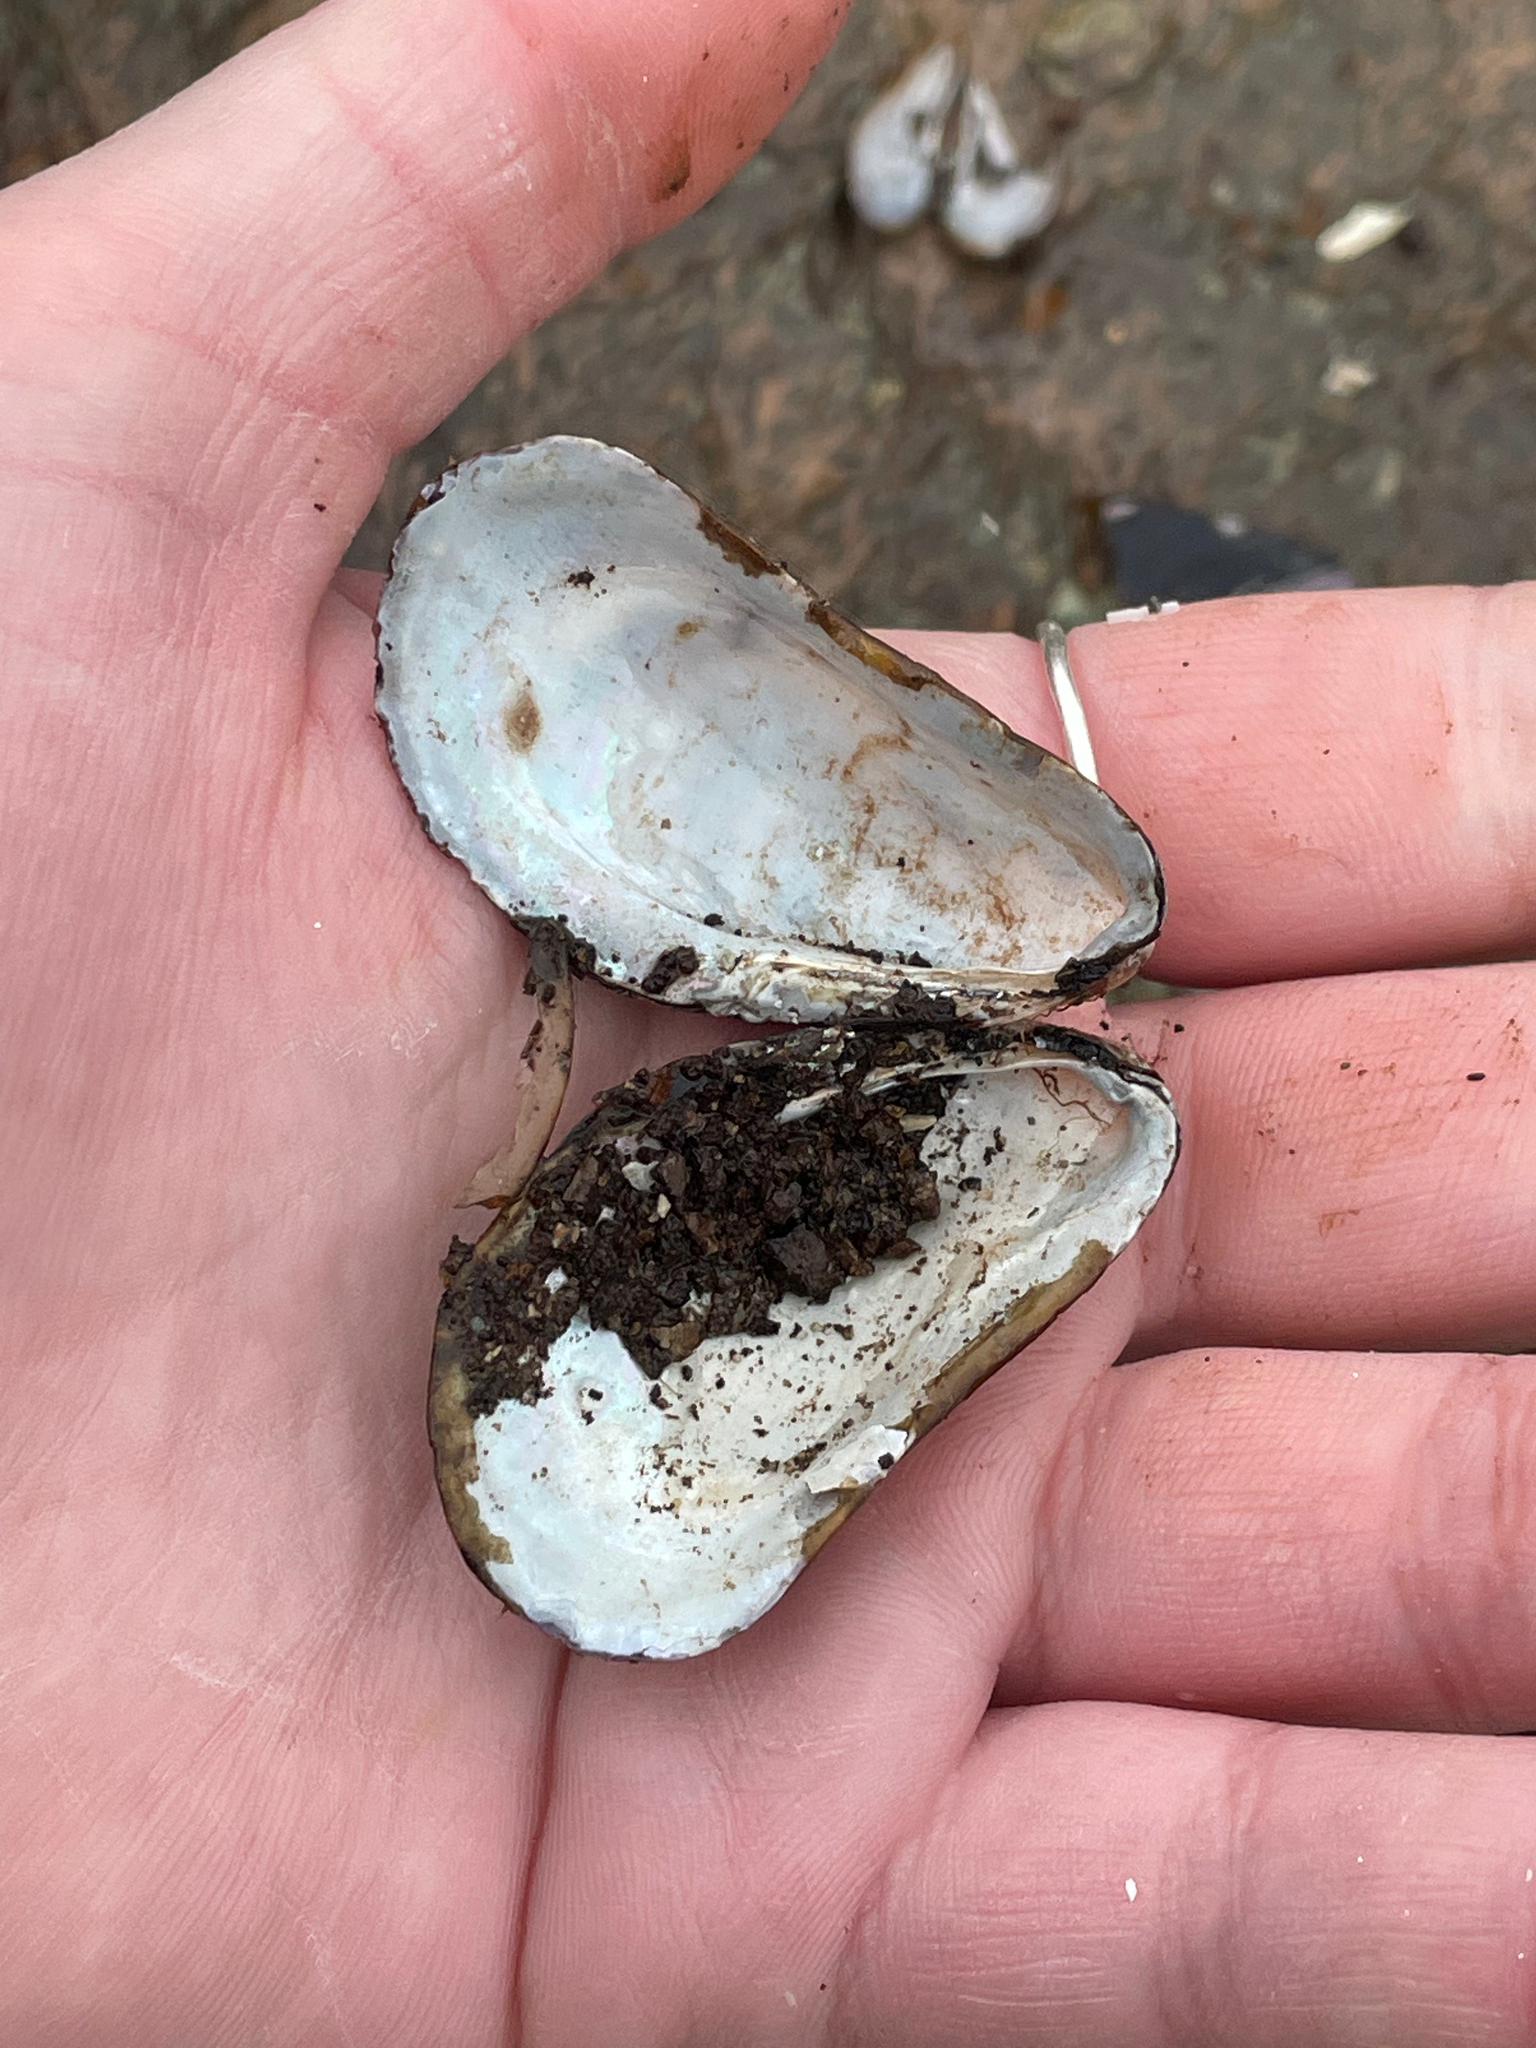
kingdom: Animalia
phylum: Mollusca
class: Bivalvia
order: Mytilida
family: Mytilidae
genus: Modiolus
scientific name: Modiolus modiolus
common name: Horse-mussel
